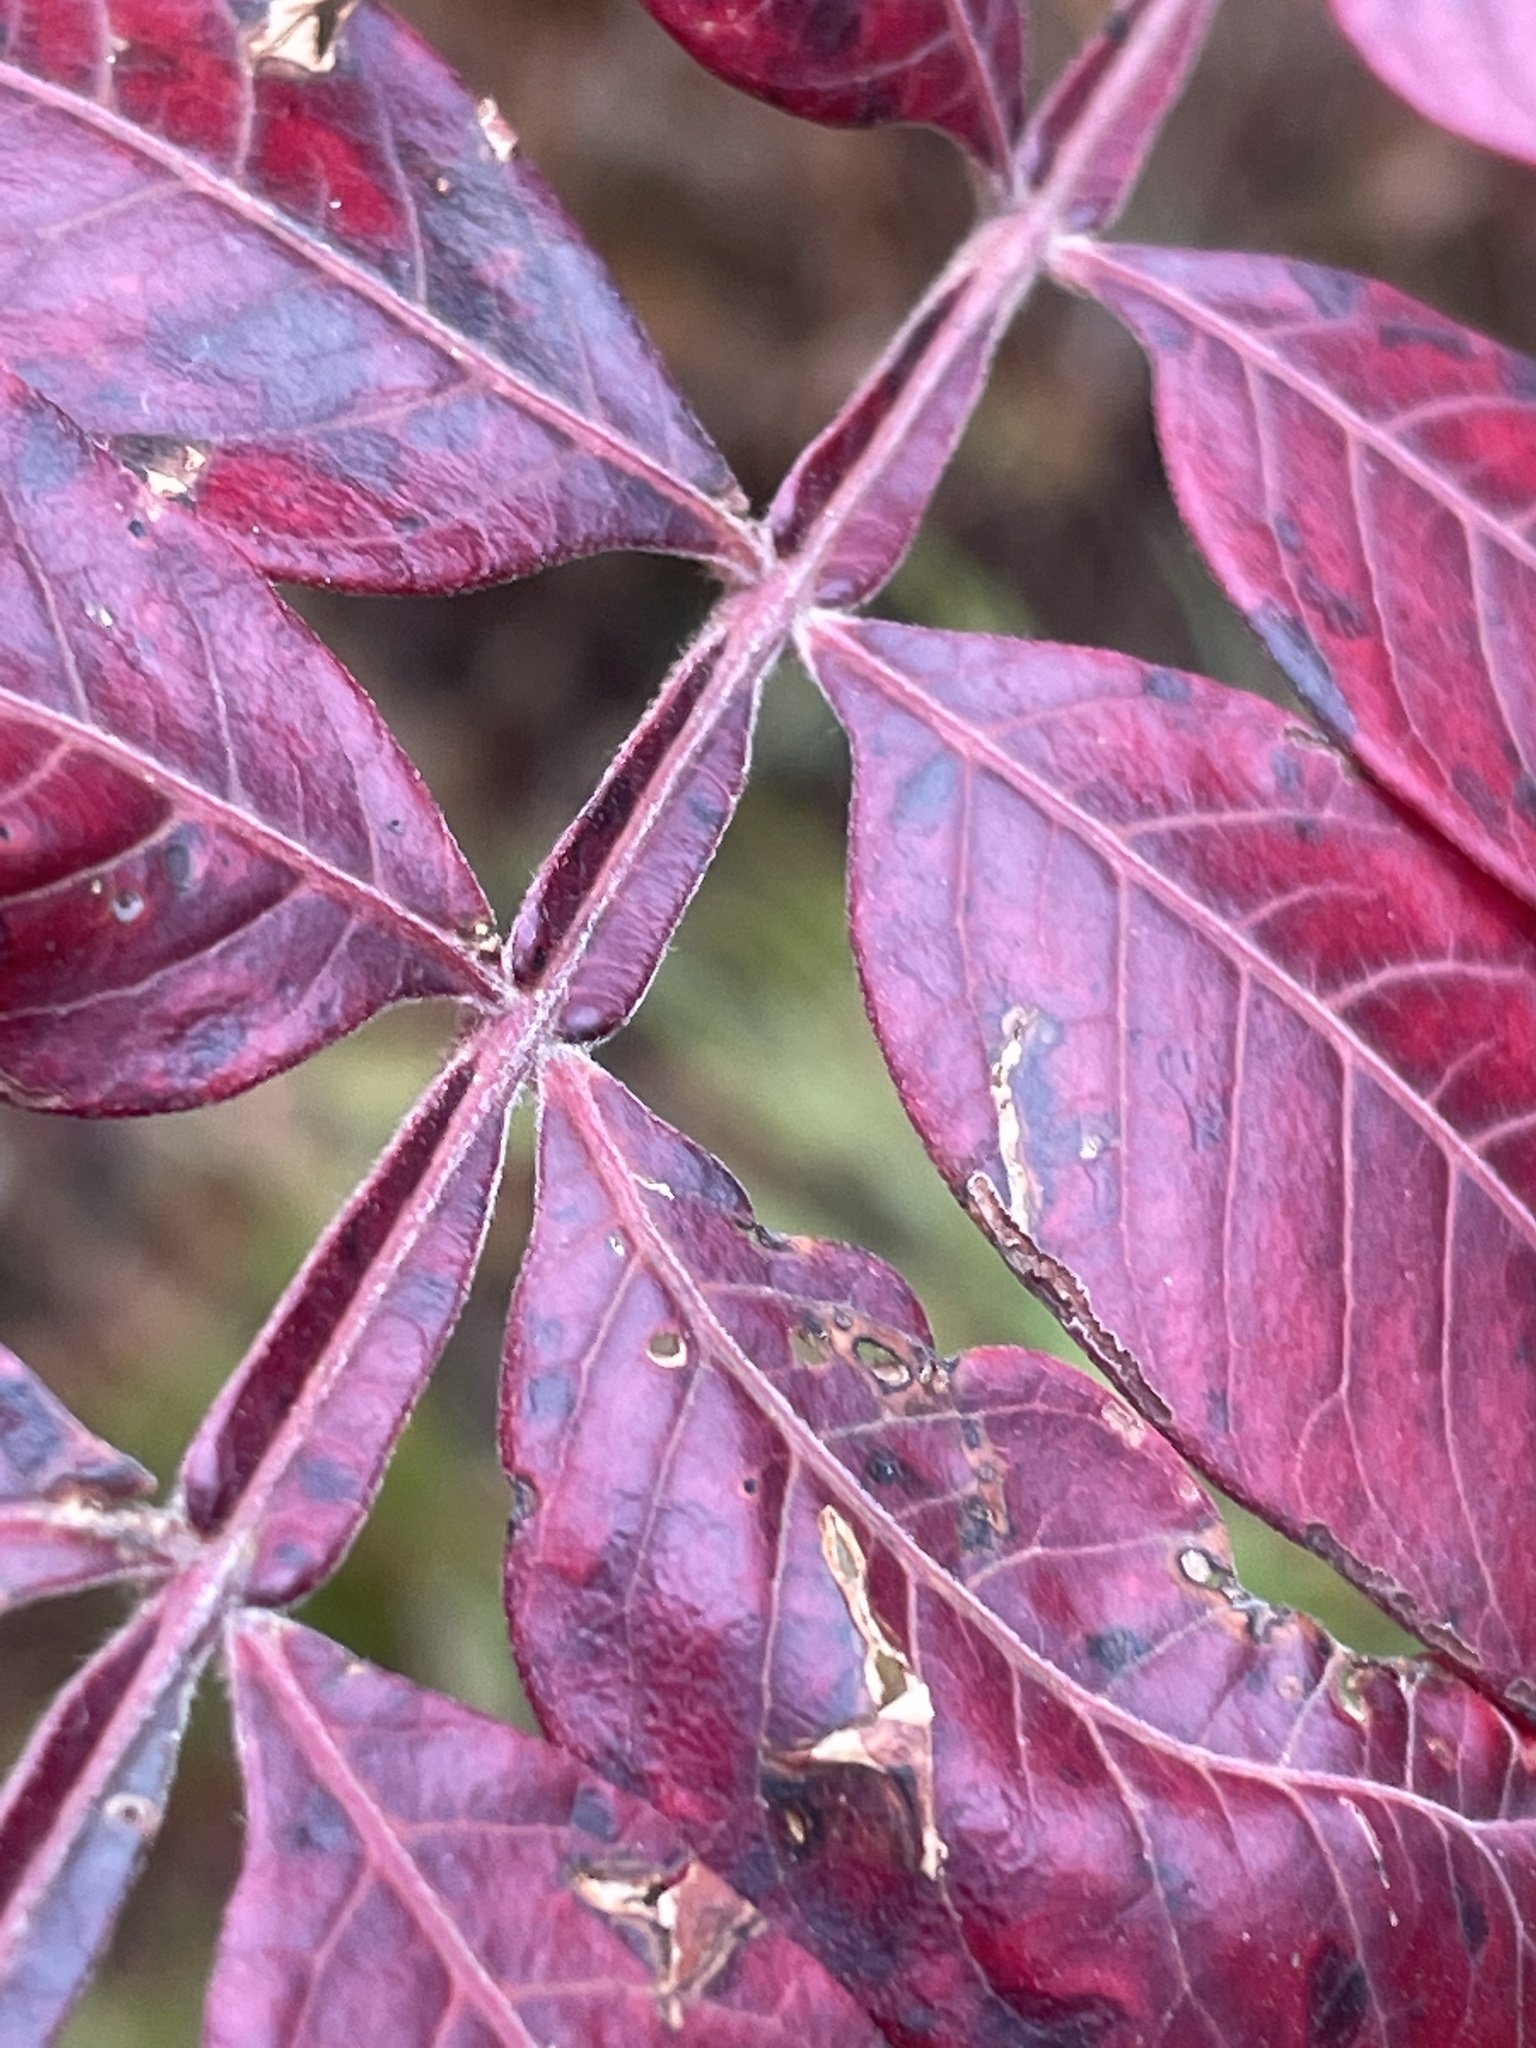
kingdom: Plantae
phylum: Tracheophyta
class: Magnoliopsida
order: Sapindales
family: Anacardiaceae
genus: Rhus
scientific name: Rhus copallina
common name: Shining sumac
